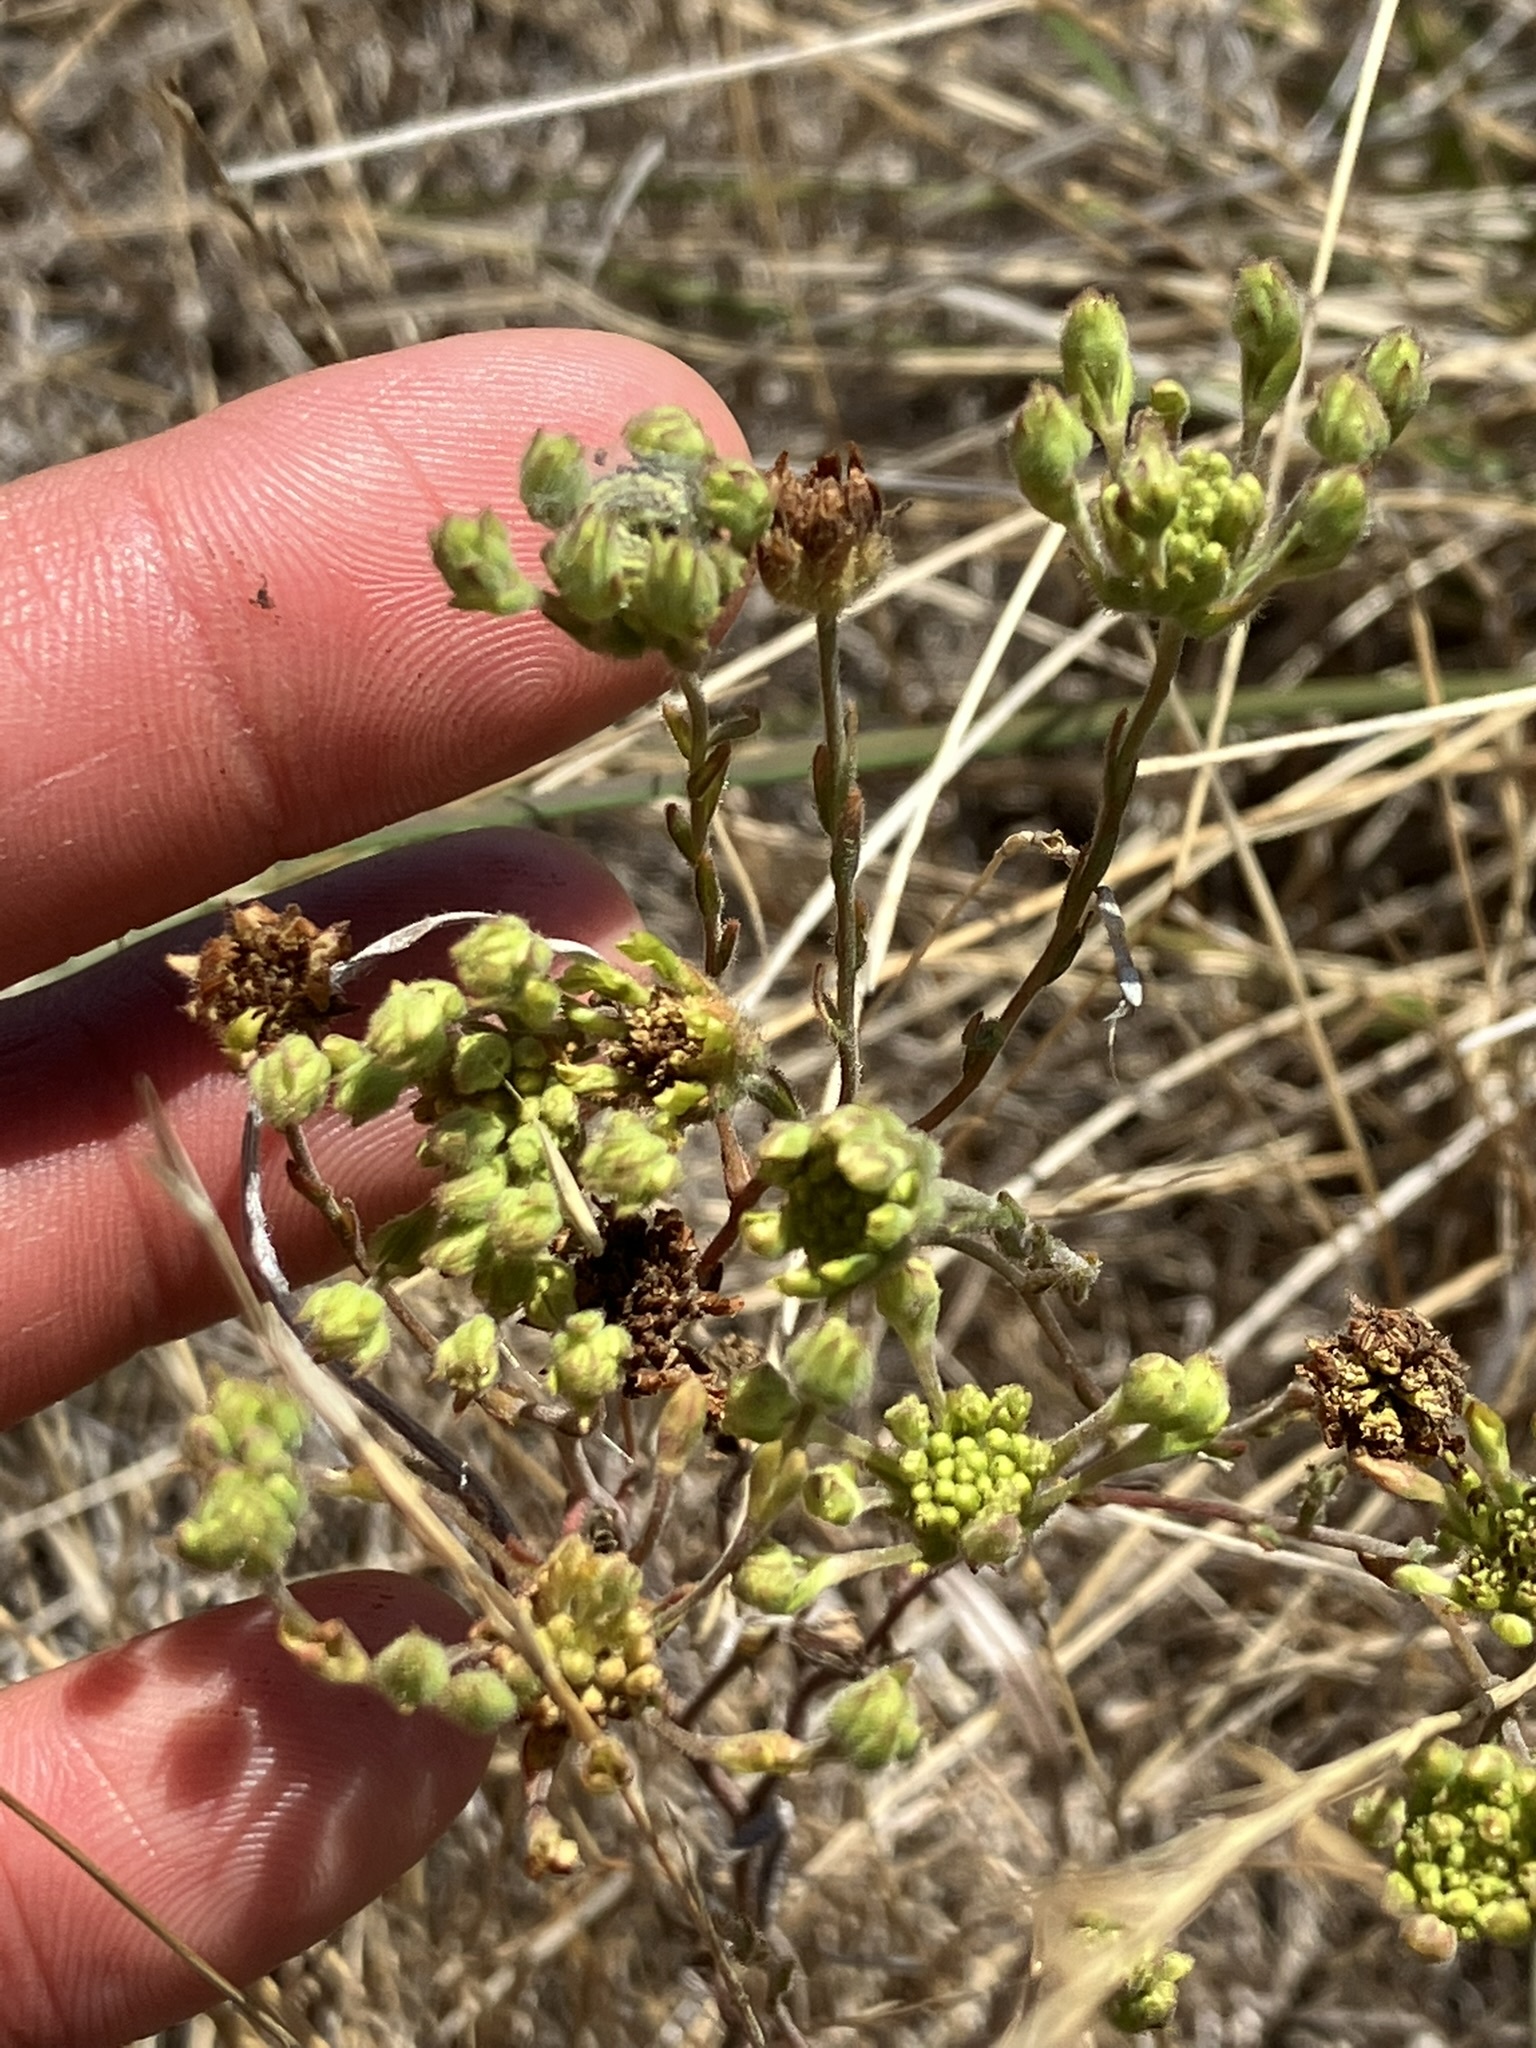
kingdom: Plantae
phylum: Tracheophyta
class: Magnoliopsida
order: Asterales
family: Asteraceae
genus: Hemizonia
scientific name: Hemizonia congesta
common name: Hayfield tarweed
